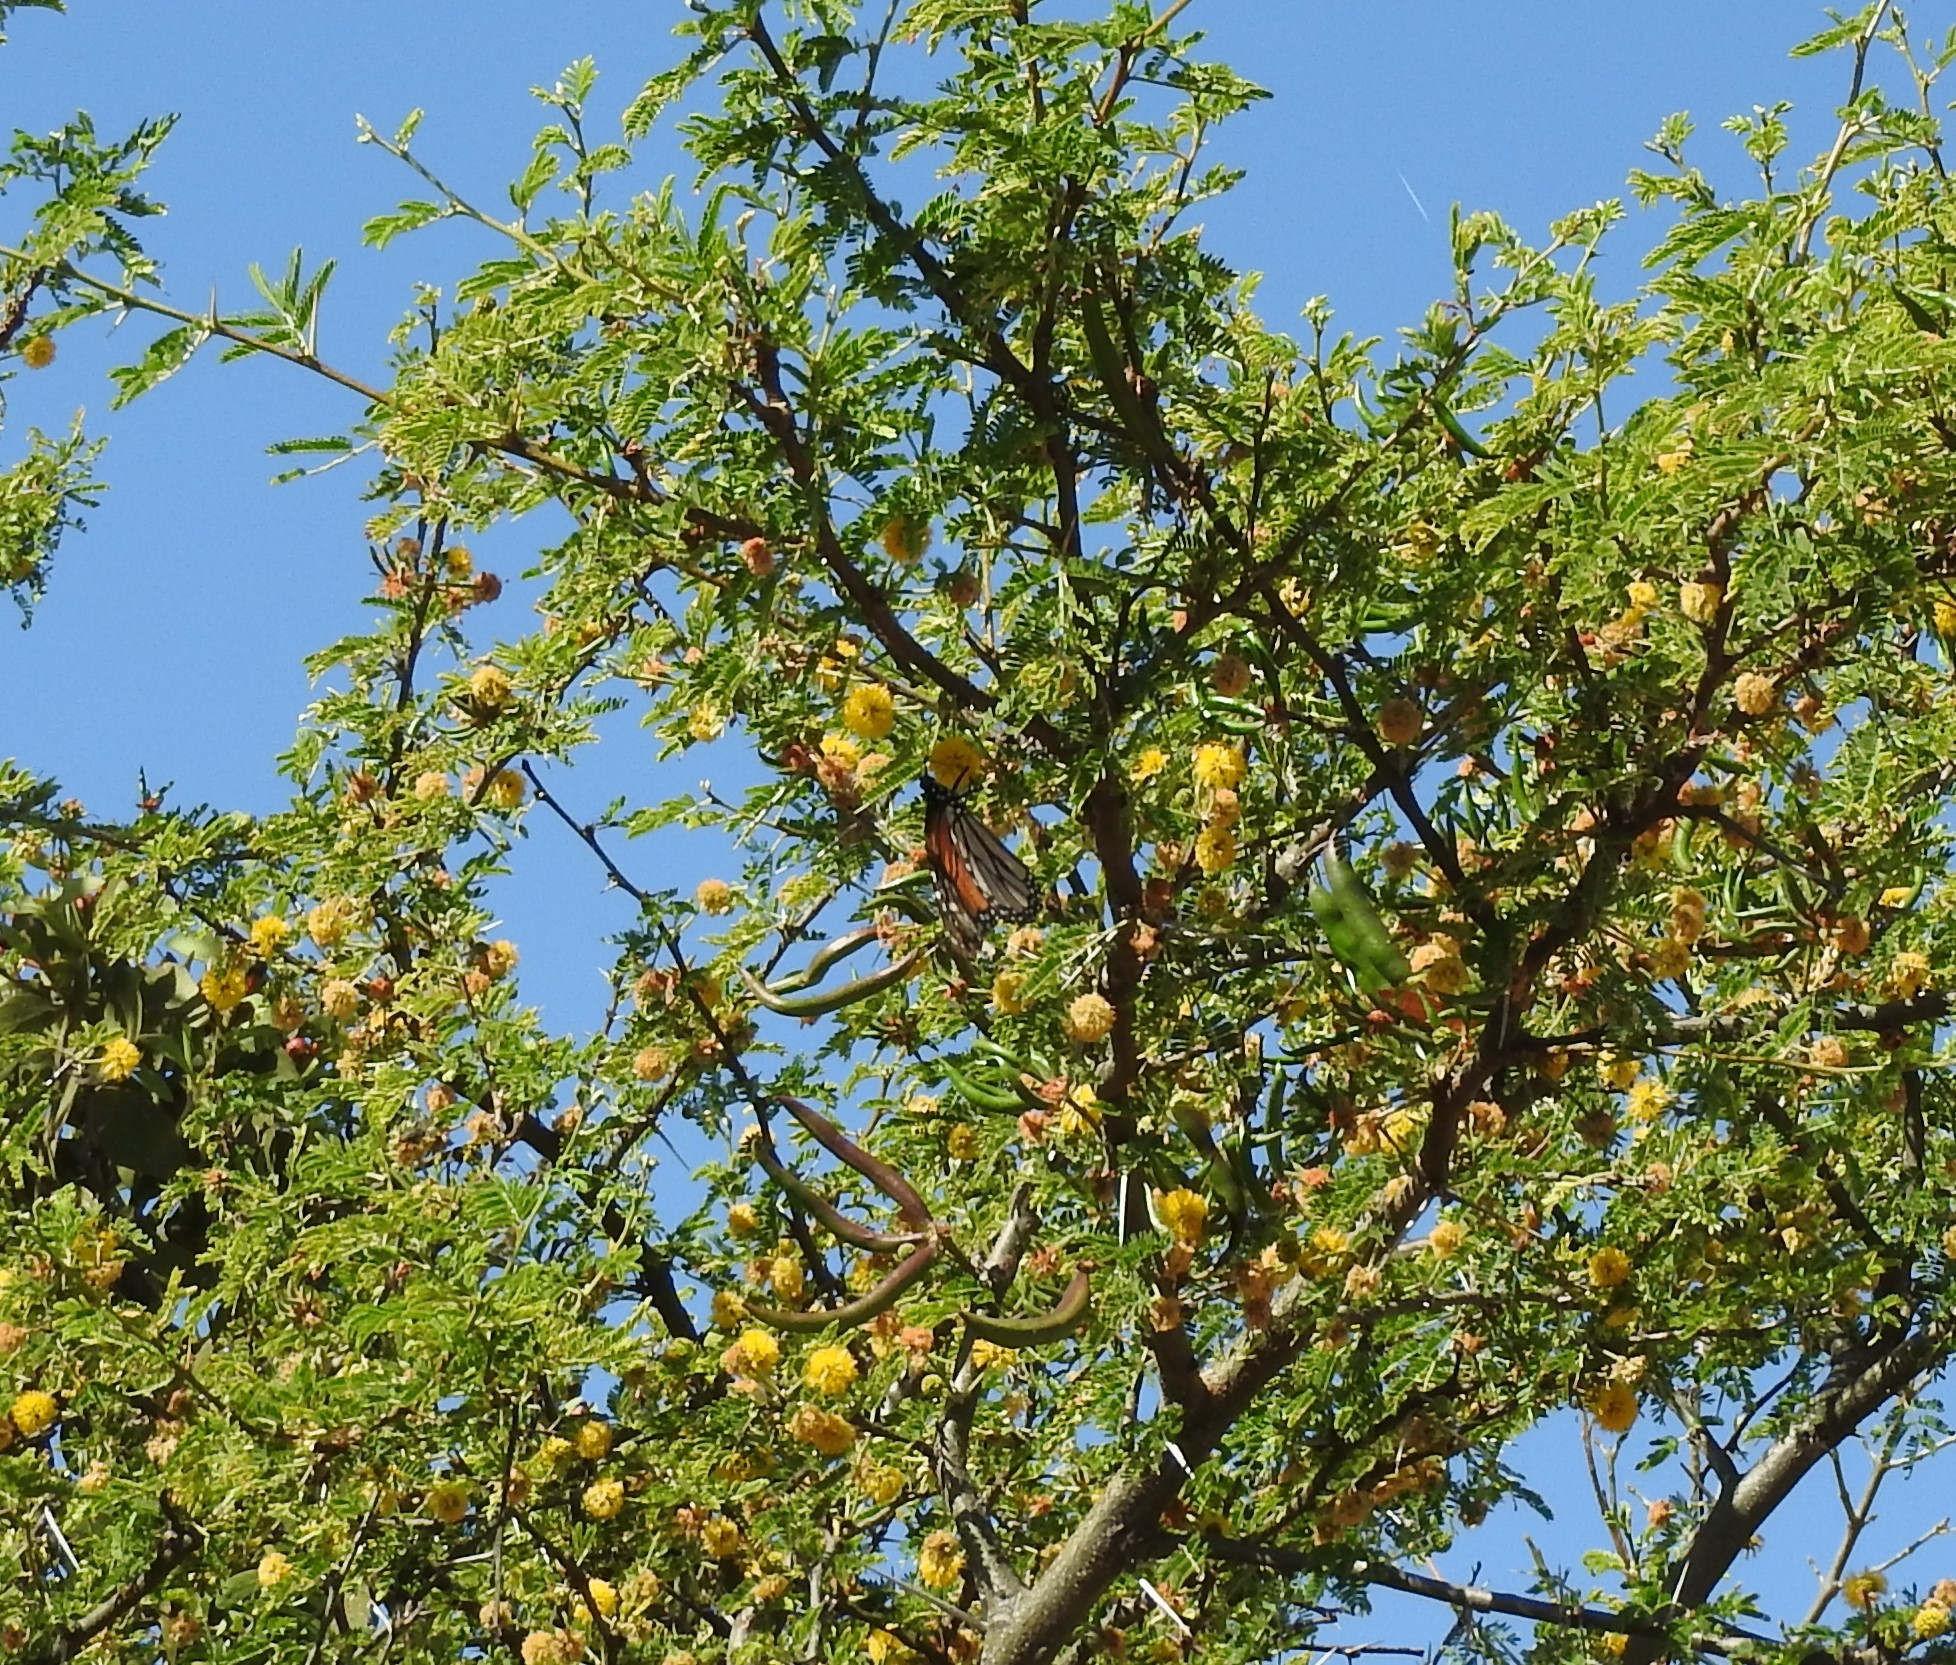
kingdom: Animalia
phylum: Arthropoda
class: Insecta
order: Lepidoptera
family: Nymphalidae
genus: Danaus
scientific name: Danaus plexippus
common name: Monarch
